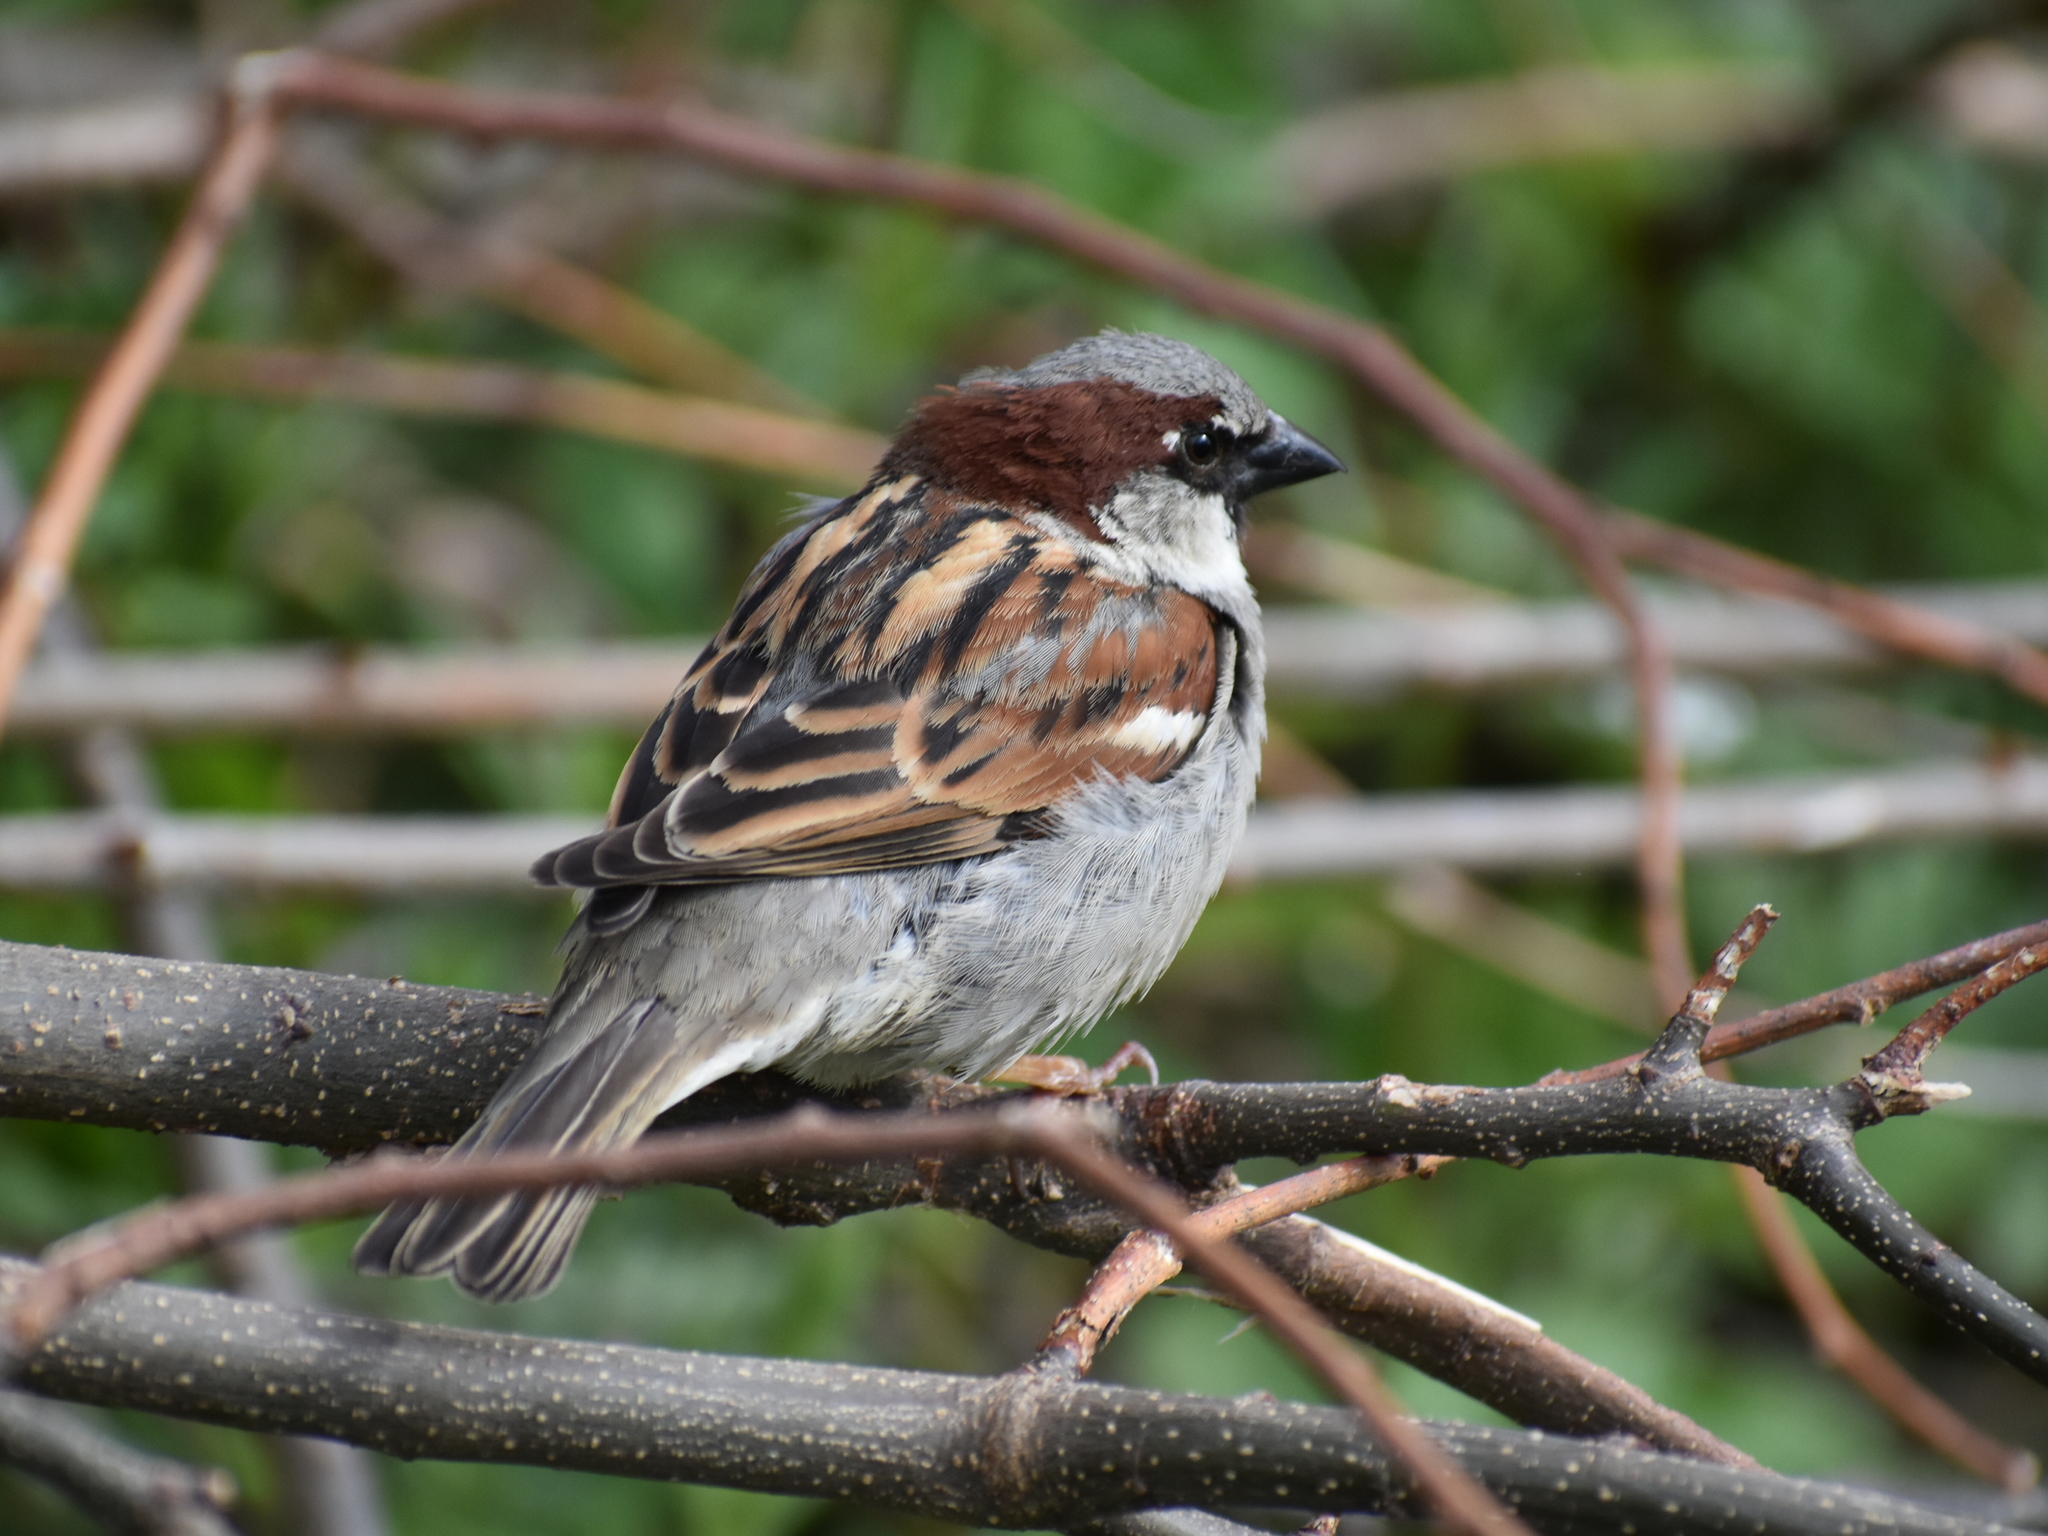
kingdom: Animalia
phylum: Chordata
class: Aves
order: Passeriformes
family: Passeridae
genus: Passer
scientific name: Passer domesticus
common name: House sparrow
